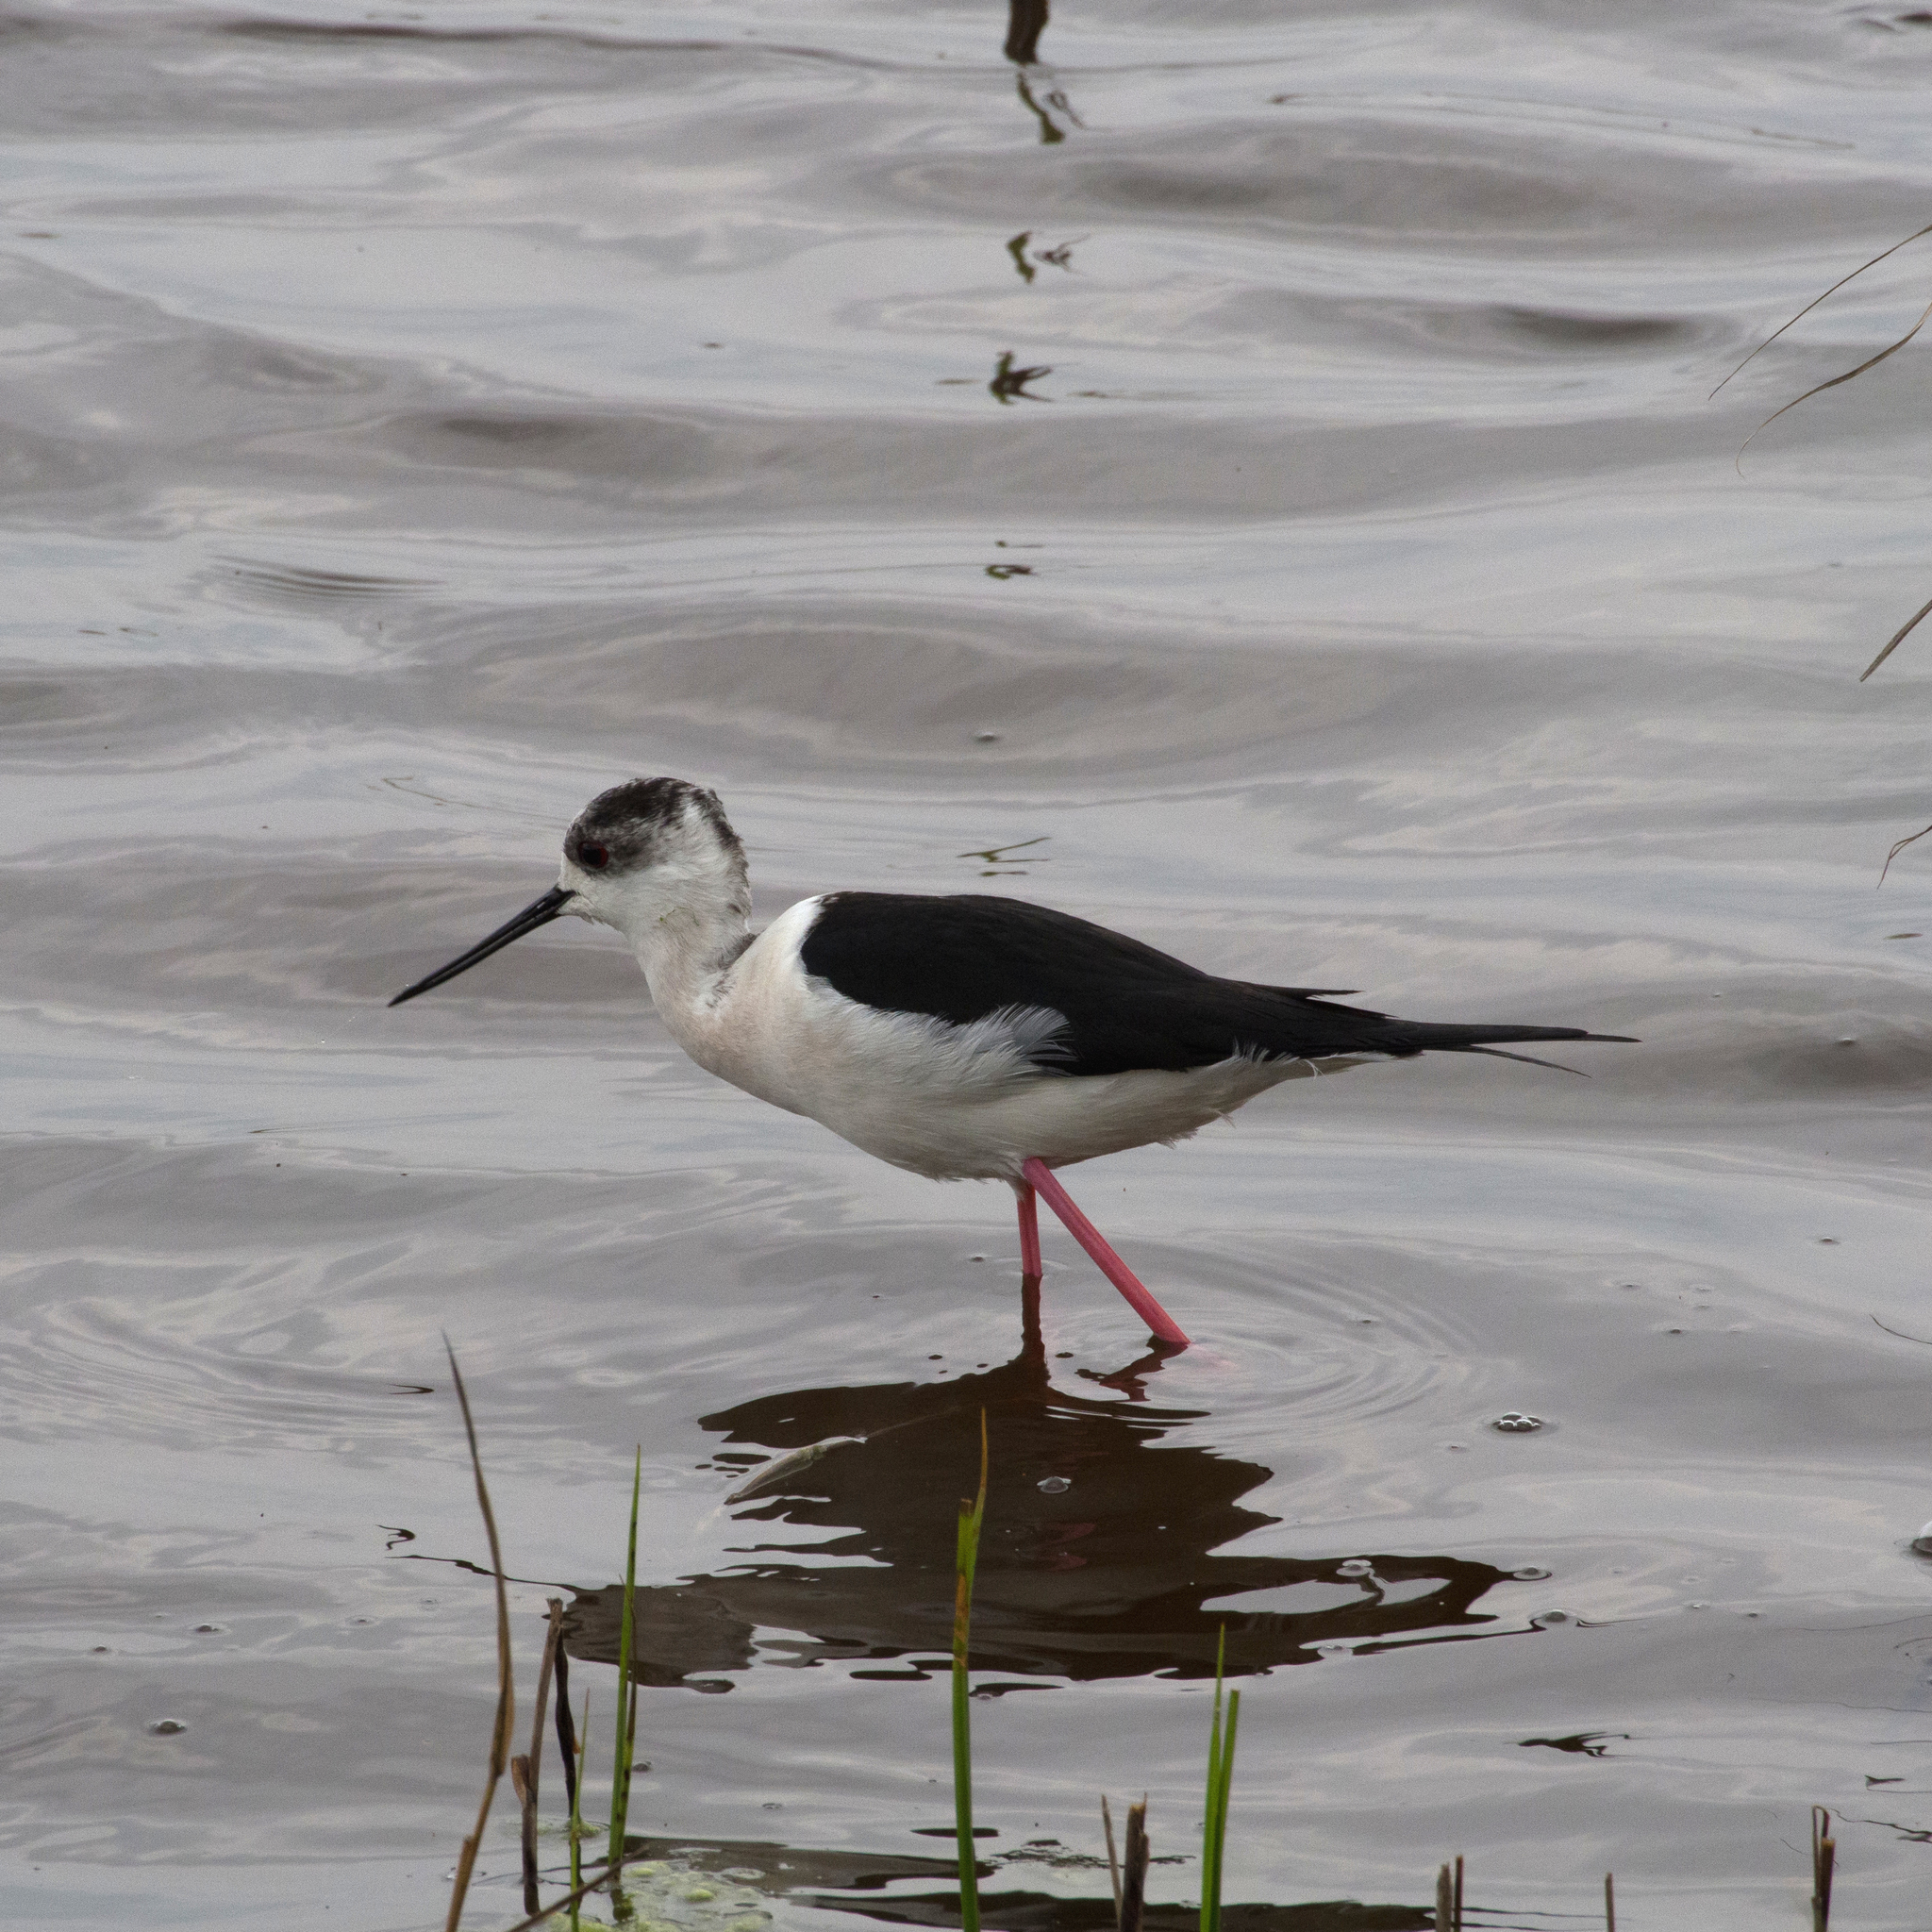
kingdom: Animalia
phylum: Chordata
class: Aves
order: Charadriiformes
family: Recurvirostridae
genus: Himantopus
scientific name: Himantopus himantopus
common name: Black-winged stilt
